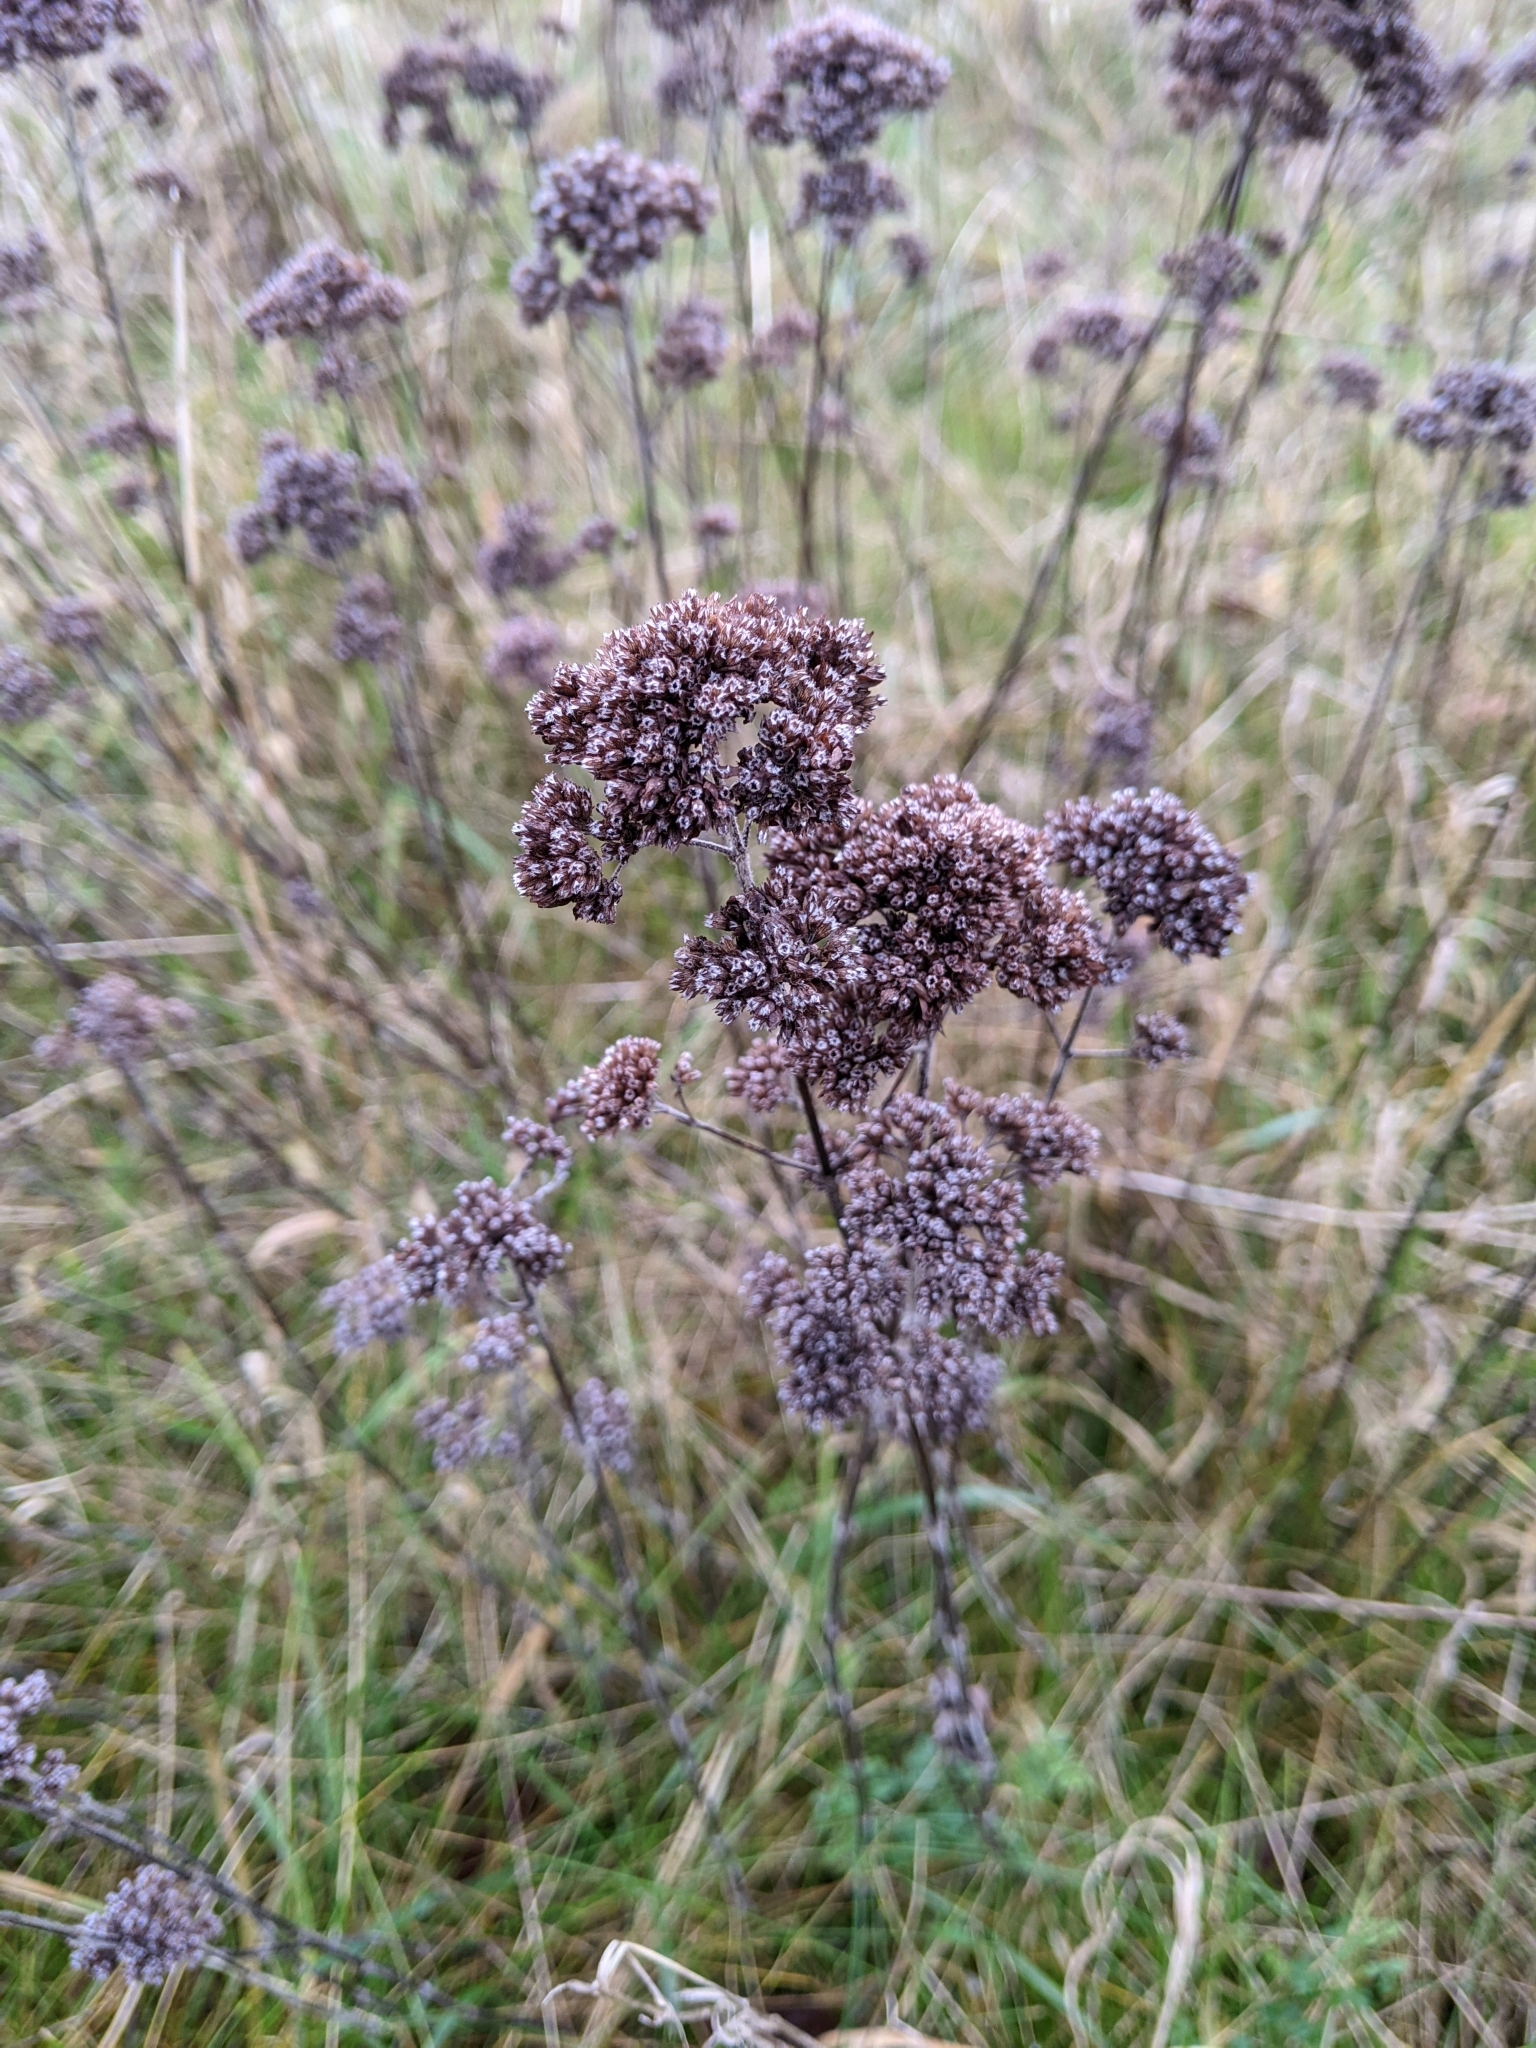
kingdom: Plantae
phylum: Tracheophyta
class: Magnoliopsida
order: Lamiales
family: Lamiaceae
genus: Origanum
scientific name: Origanum vulgare
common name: Wild marjoram
